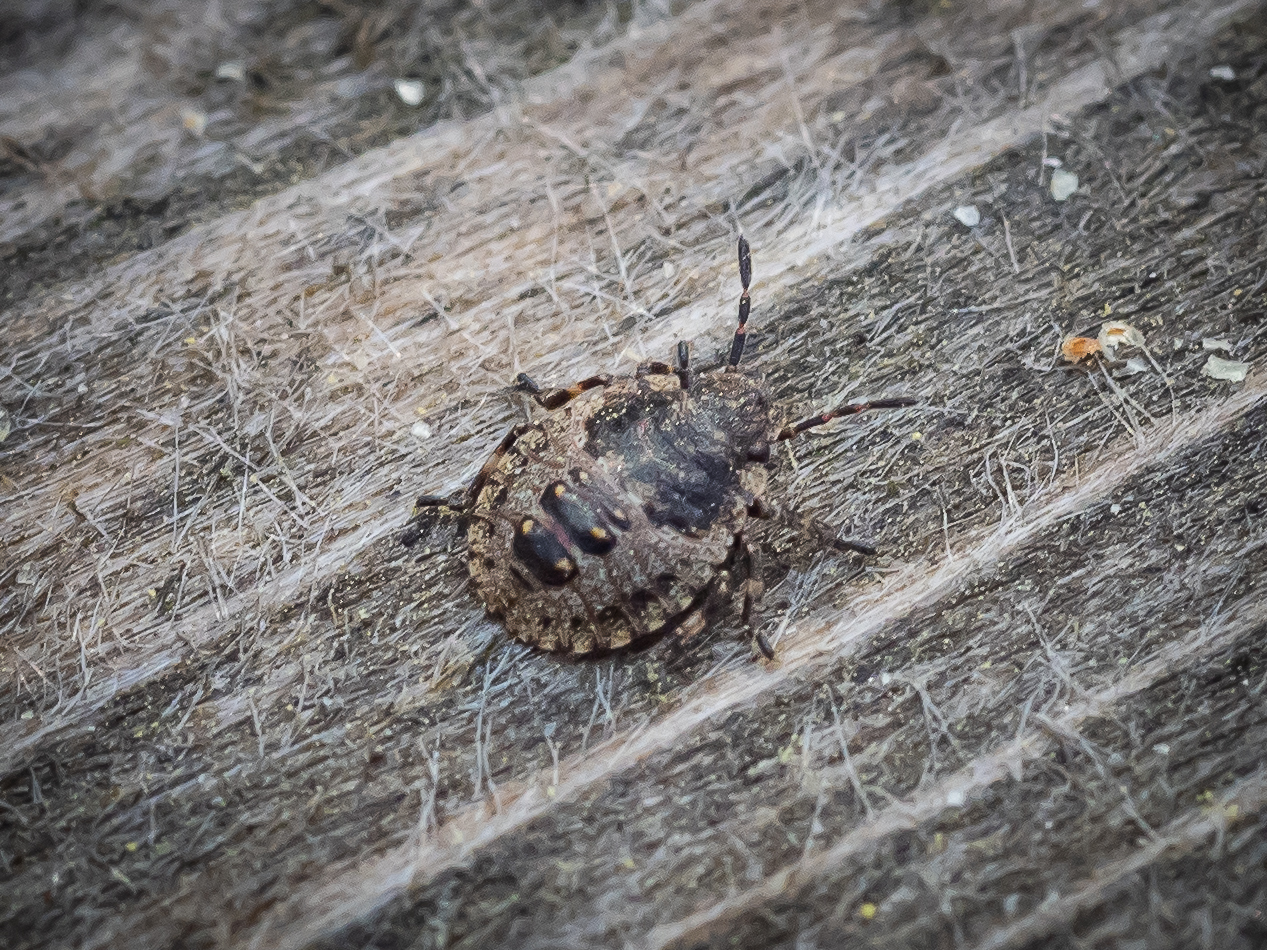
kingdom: Animalia
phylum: Arthropoda
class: Insecta
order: Hemiptera
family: Pentatomidae
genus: Pentatoma
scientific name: Pentatoma rufipes
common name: Forest bug
